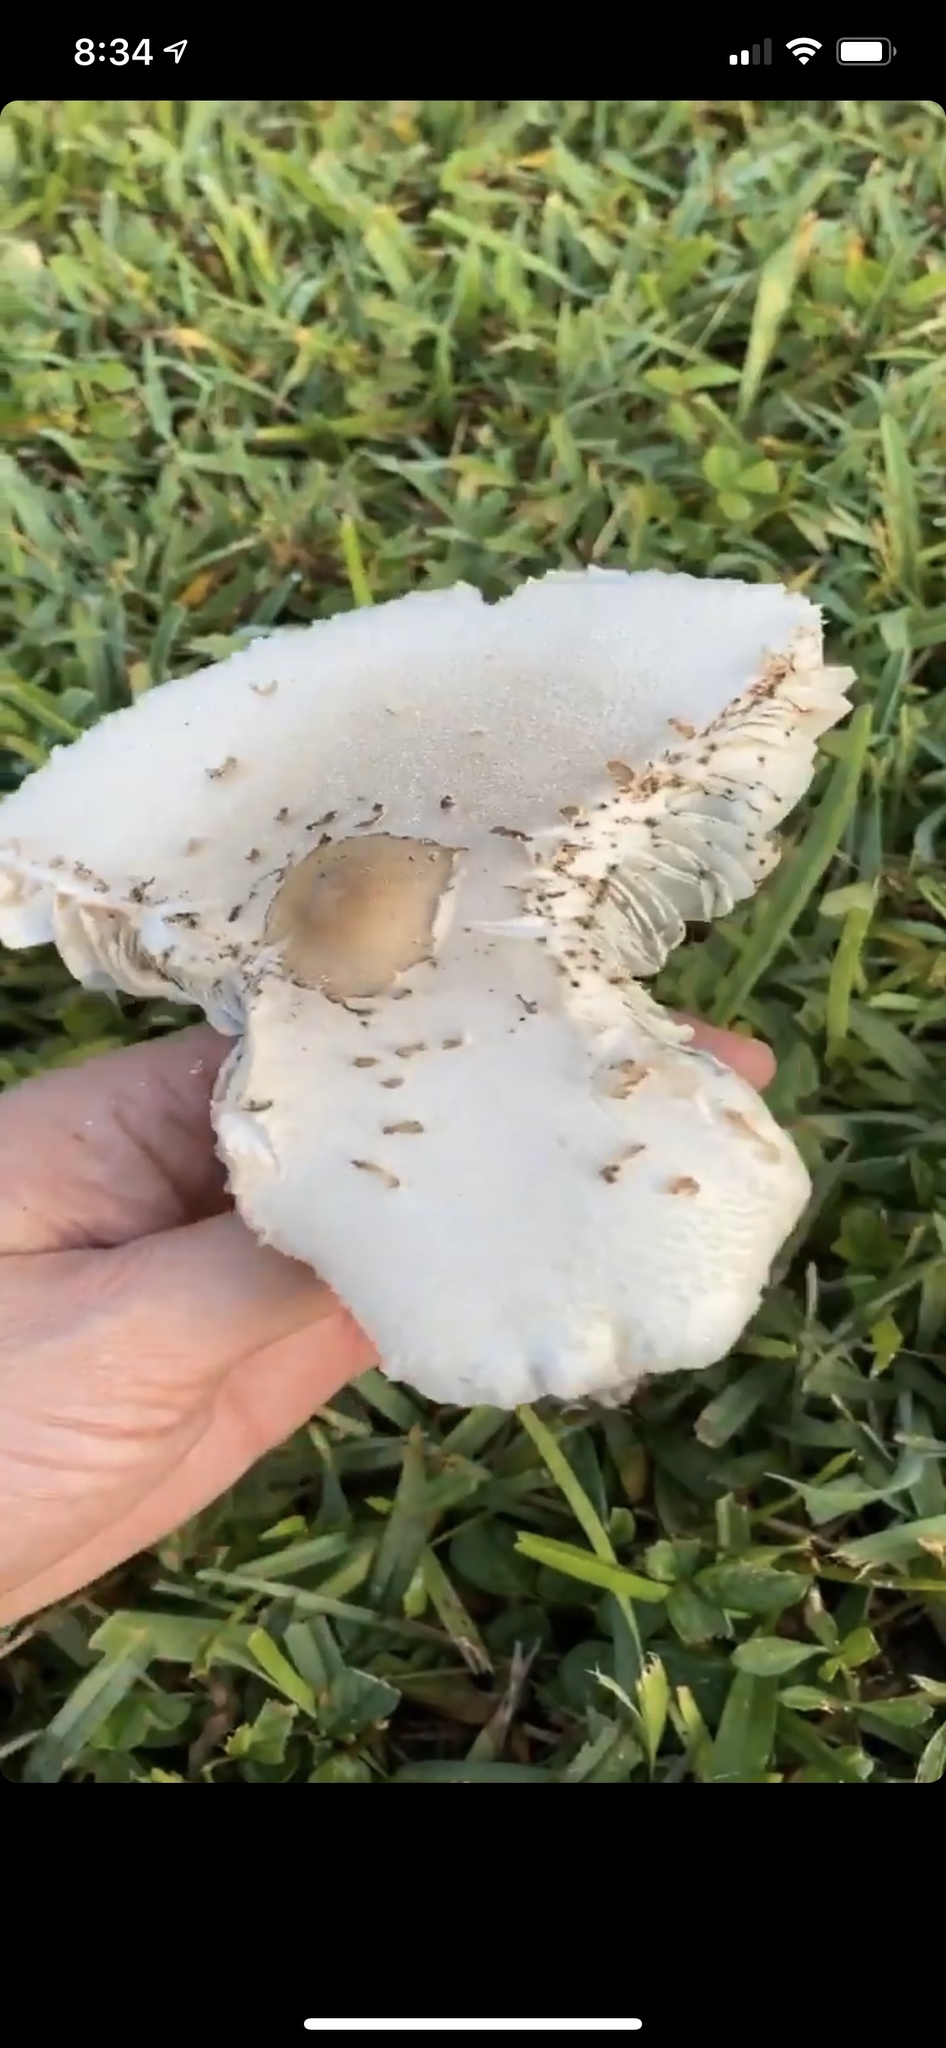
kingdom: Fungi
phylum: Basidiomycota
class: Agaricomycetes
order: Agaricales
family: Agaricaceae
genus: Chlorophyllum
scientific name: Chlorophyllum molybdites
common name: False parasol
